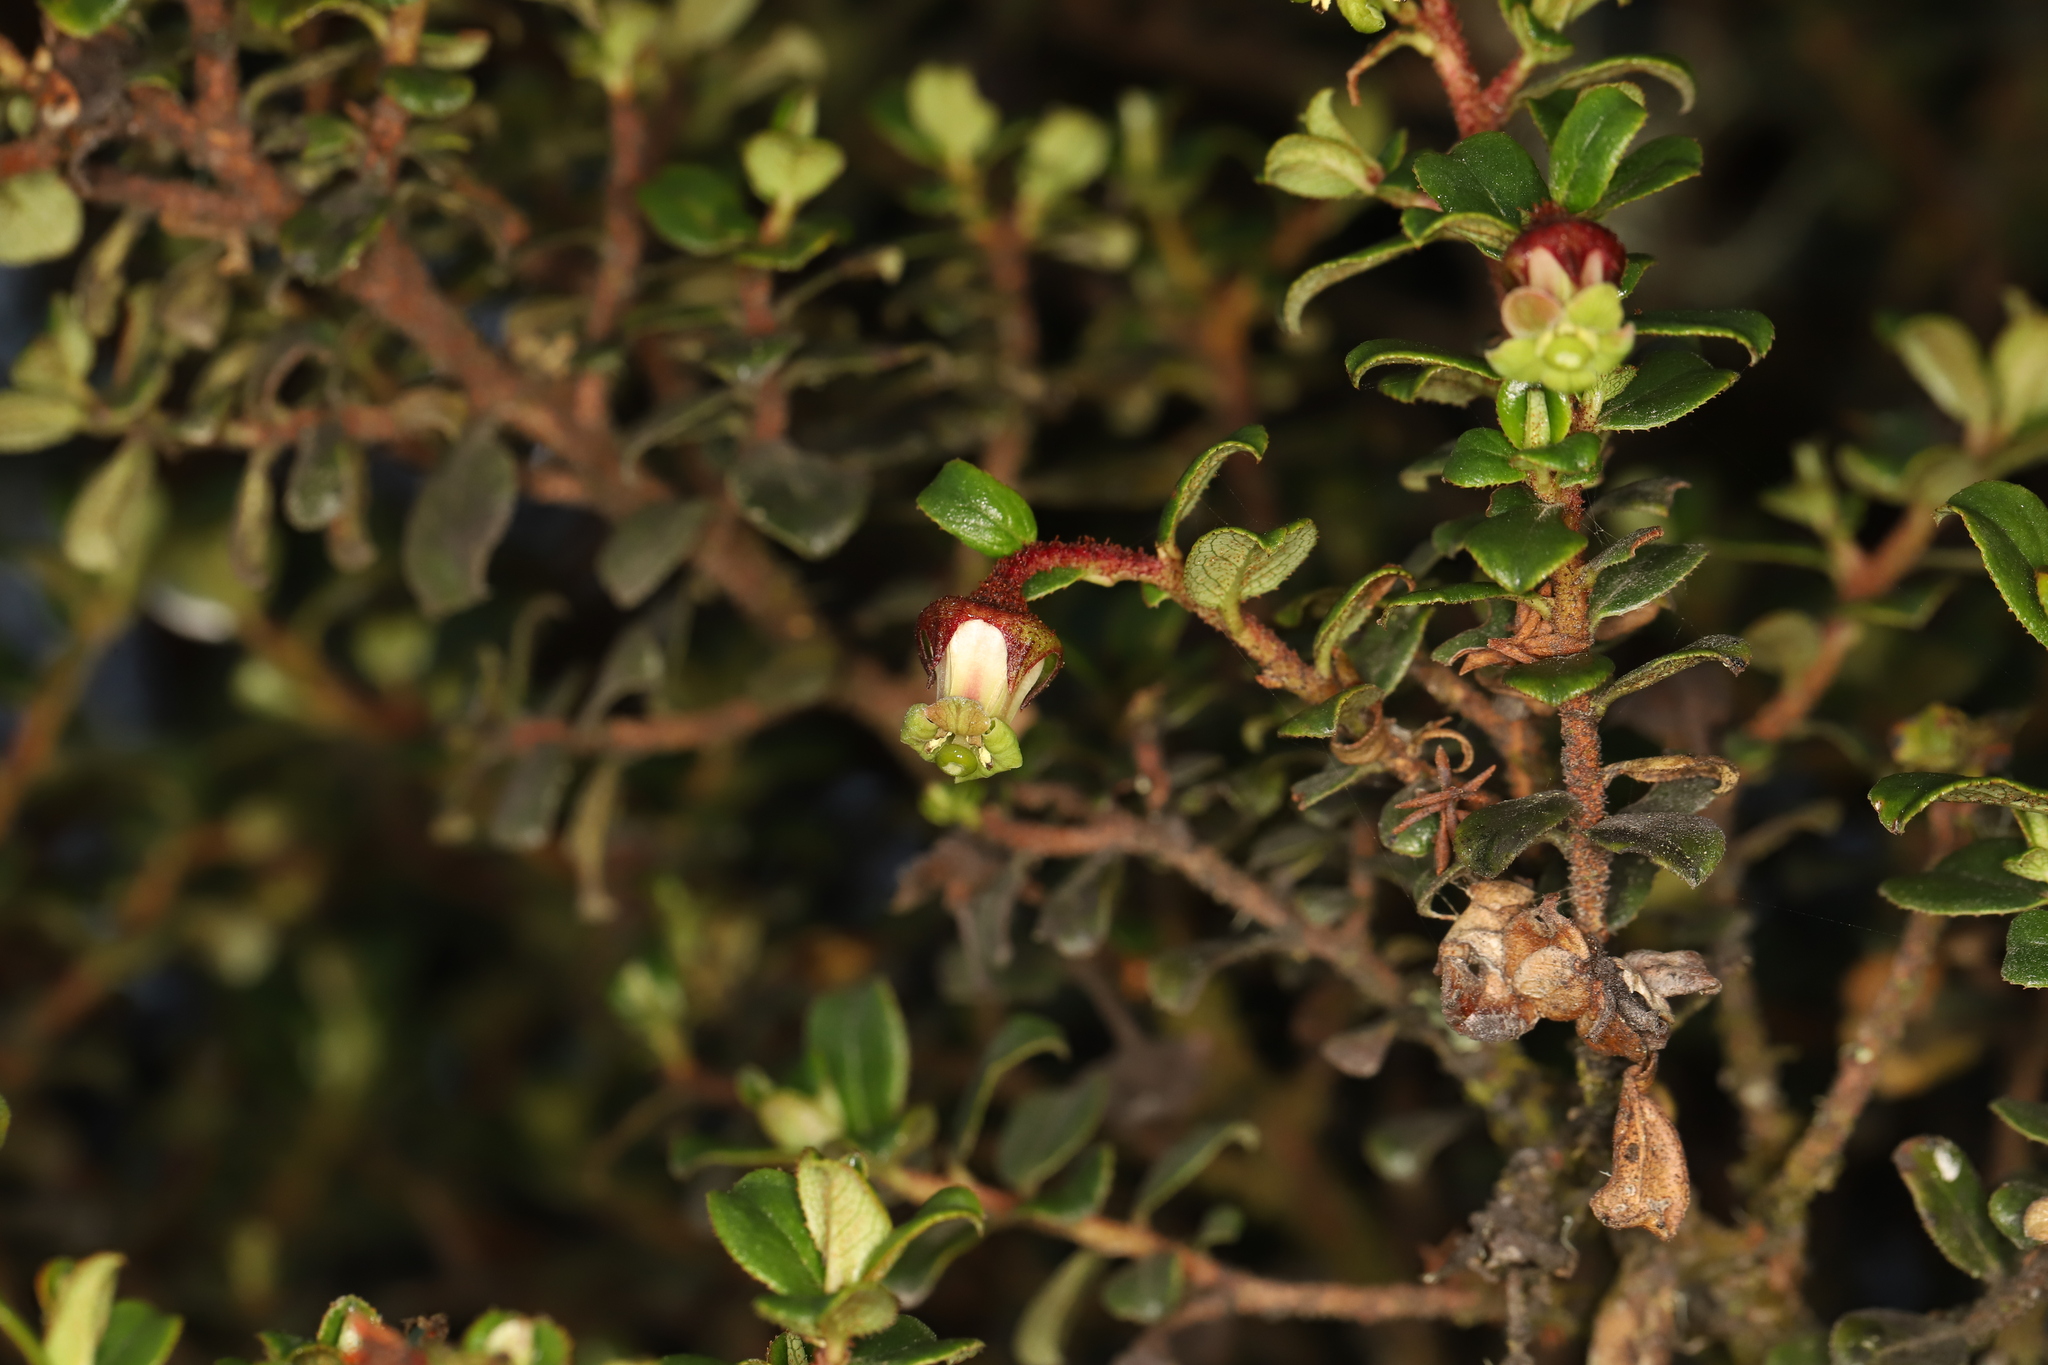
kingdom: Plantae
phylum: Tracheophyta
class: Magnoliopsida
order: Escalloniales
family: Escalloniaceae
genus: Escallonia
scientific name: Escallonia myrtilloides
